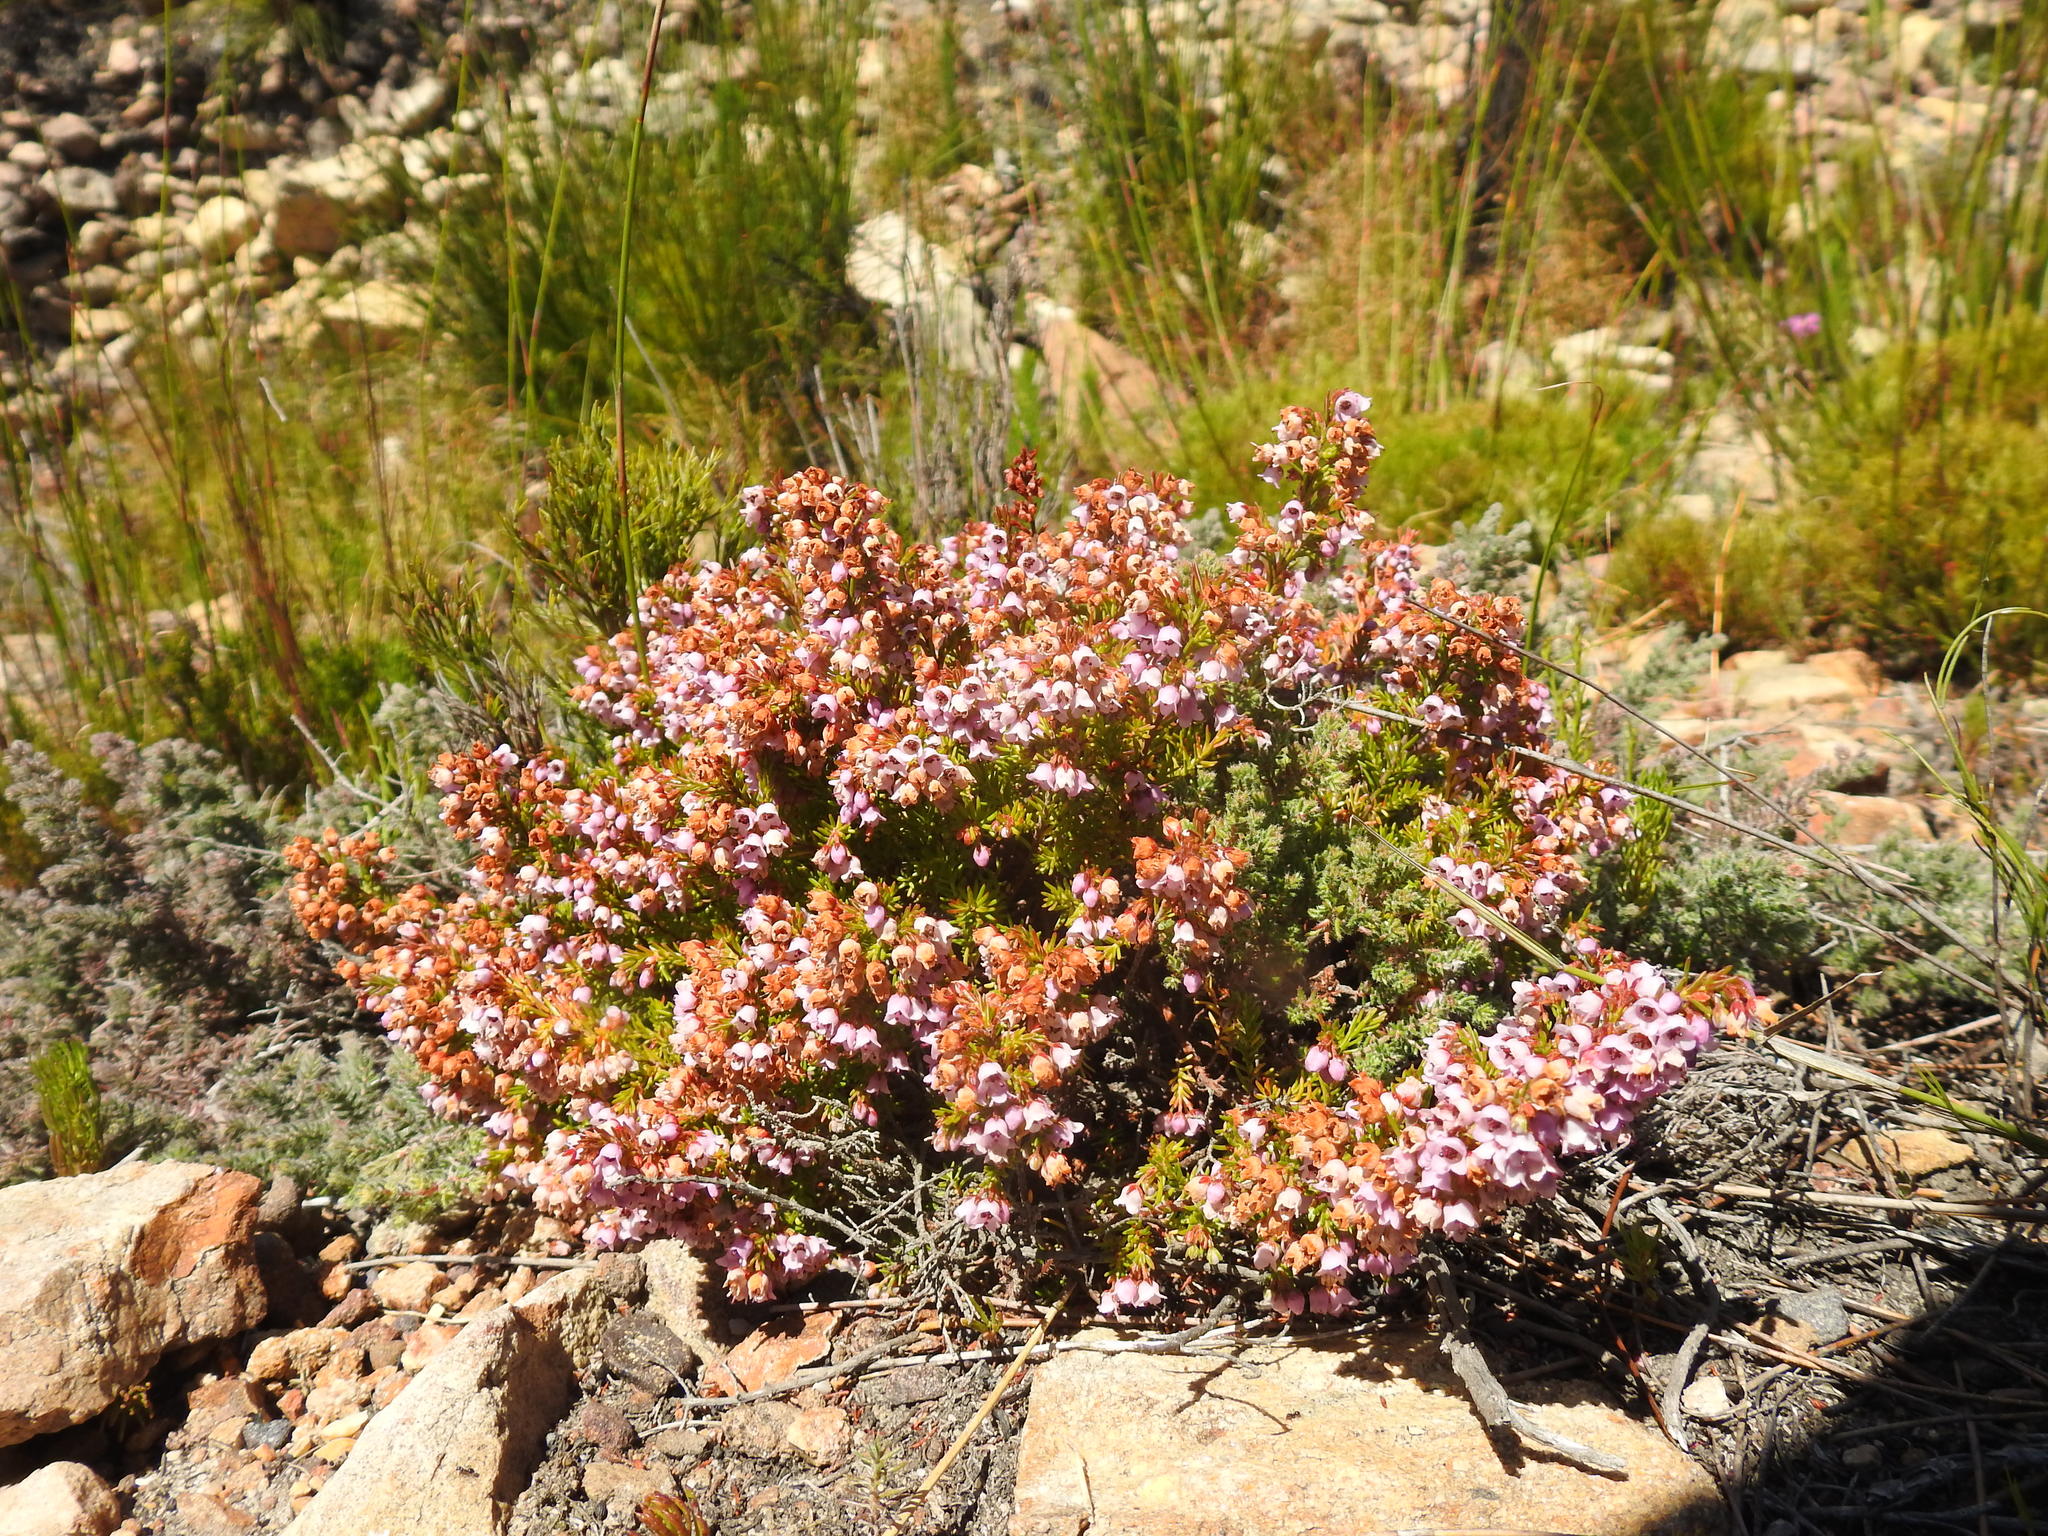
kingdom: Plantae
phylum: Tracheophyta
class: Magnoliopsida
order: Ericales
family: Ericaceae
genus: Erica
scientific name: Erica curvirostris
